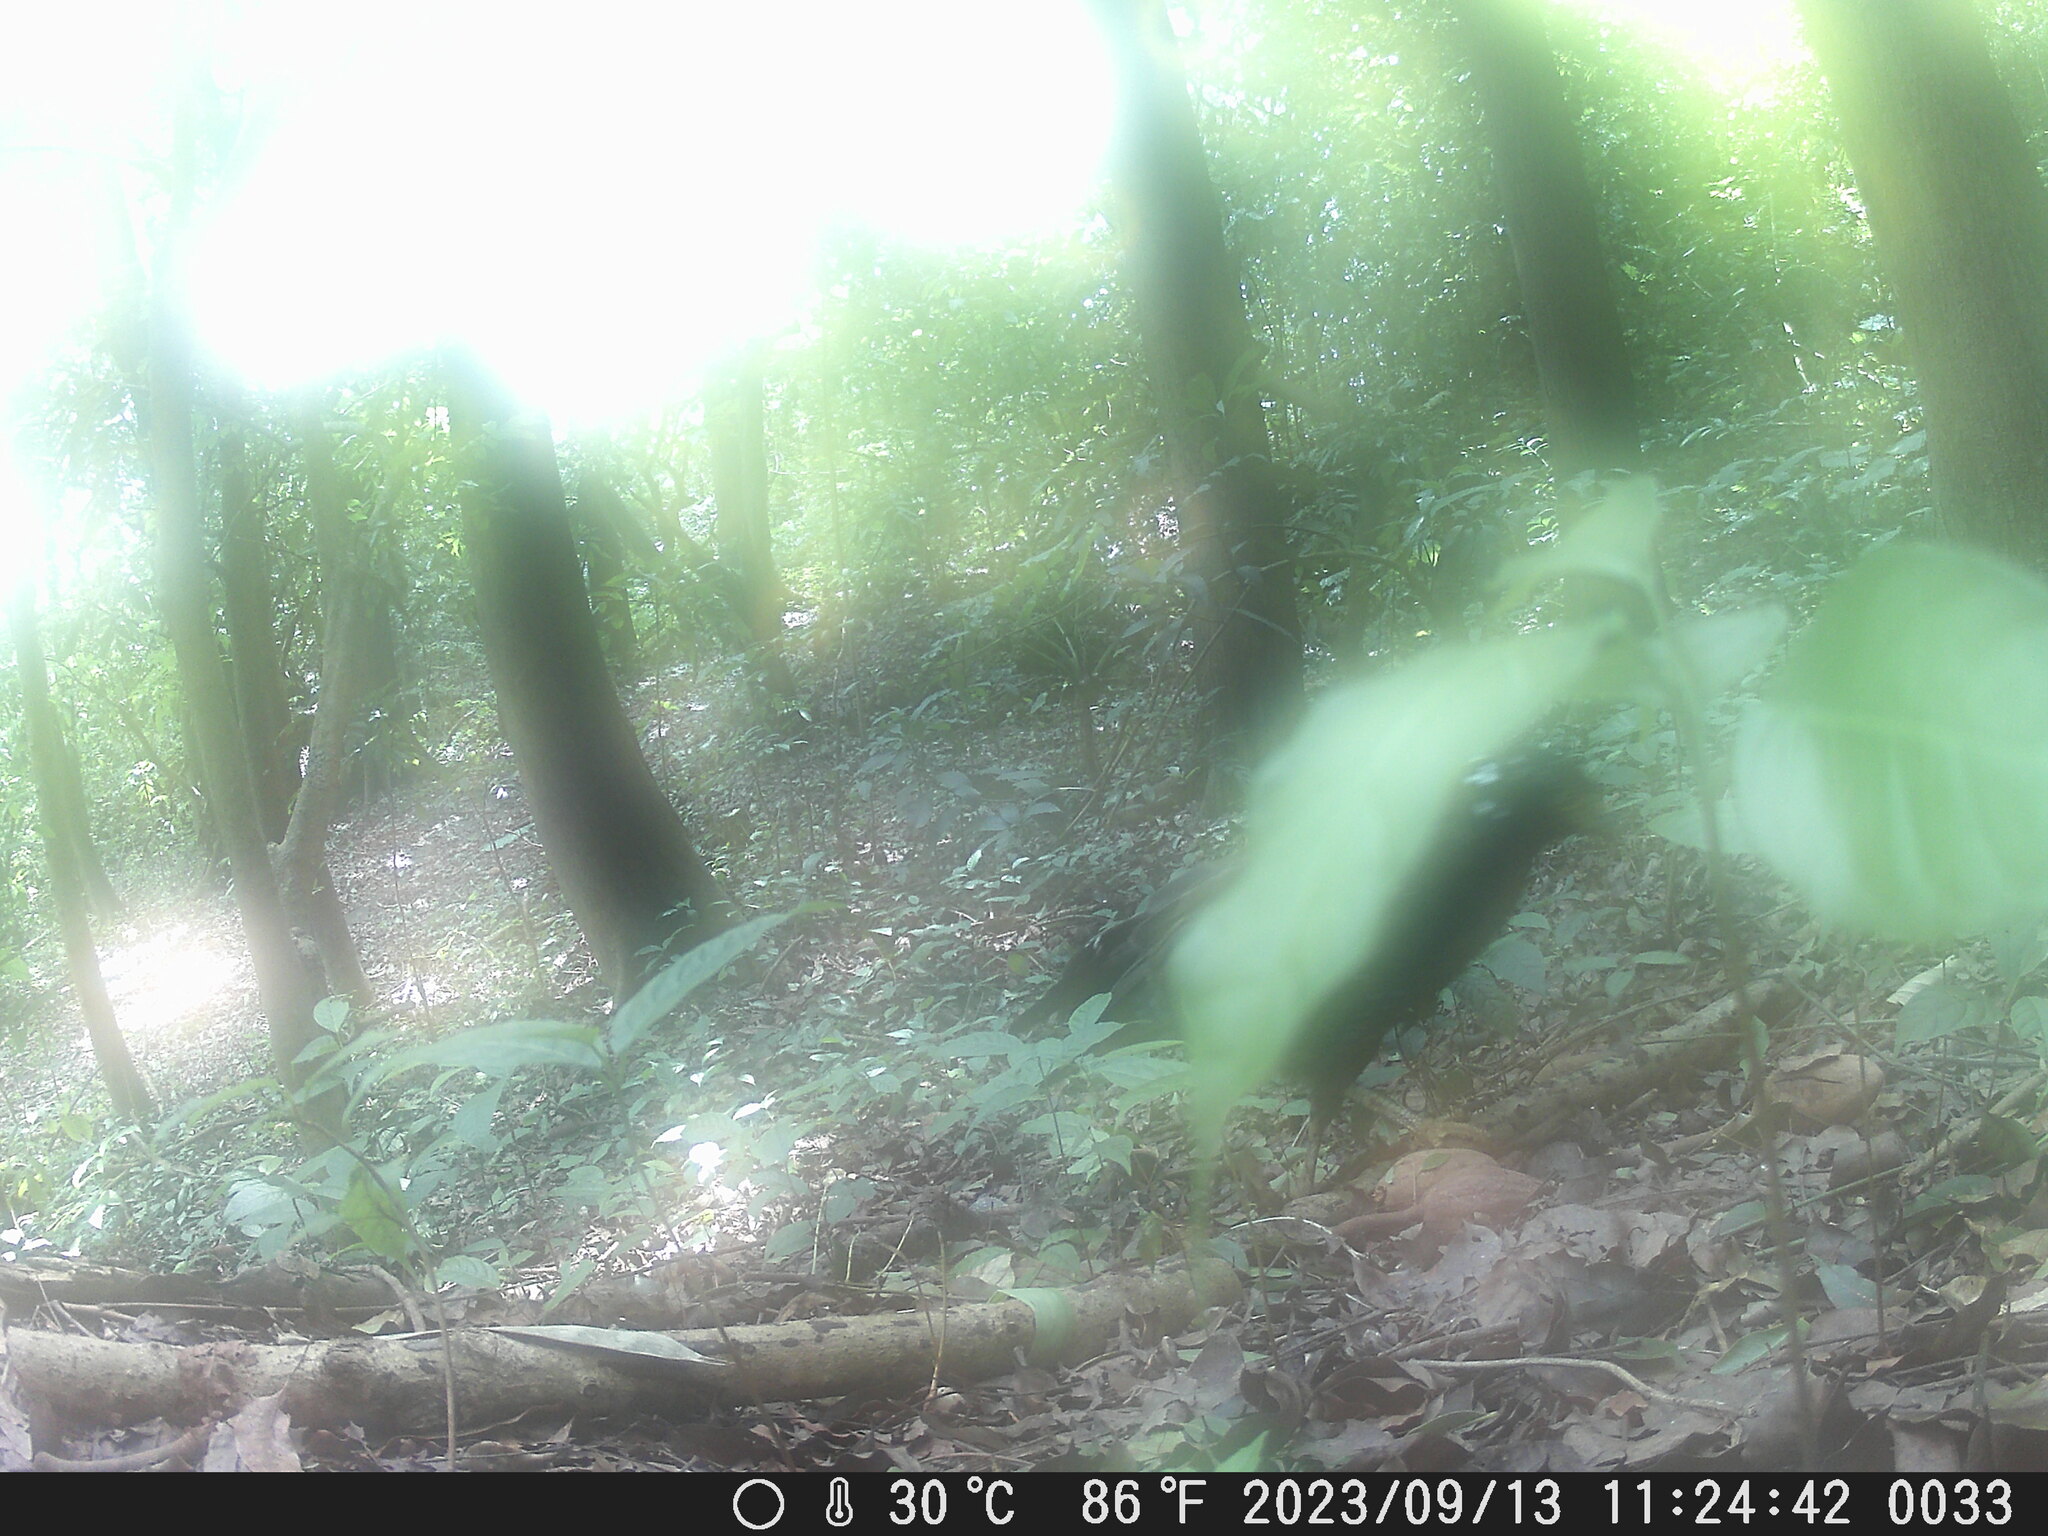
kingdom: Animalia
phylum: Chordata
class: Aves
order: Accipitriformes
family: Accipitridae
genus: Spilornis
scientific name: Spilornis cheela
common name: Crested serpent eagle
